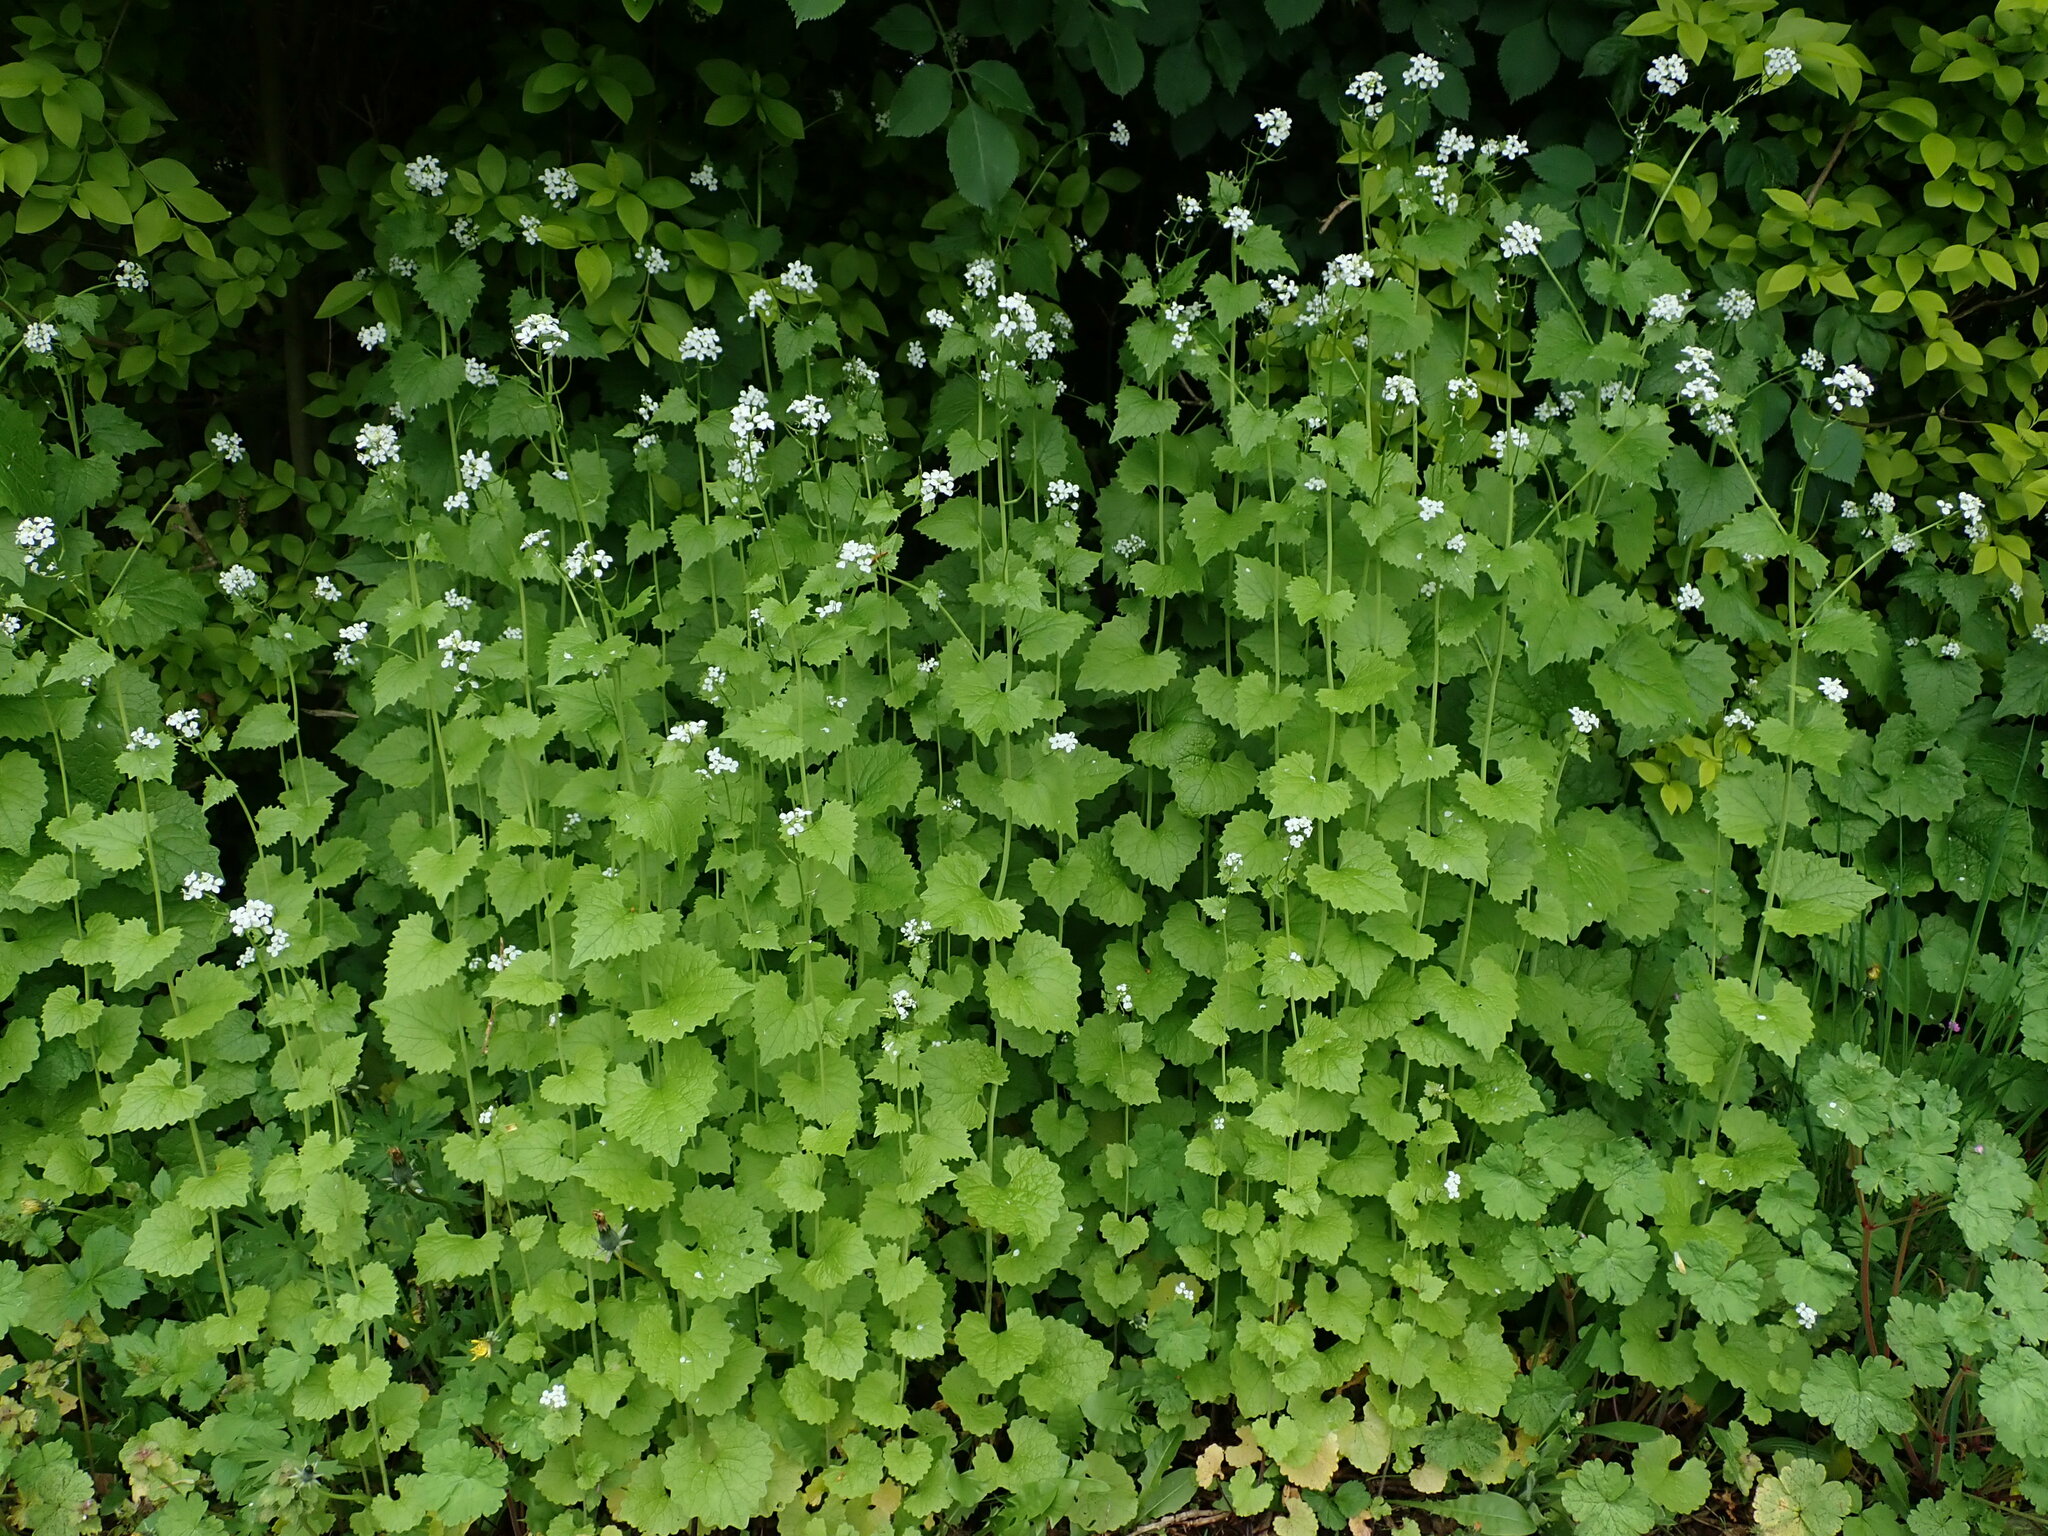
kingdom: Plantae
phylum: Tracheophyta
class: Magnoliopsida
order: Brassicales
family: Brassicaceae
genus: Alliaria
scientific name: Alliaria petiolata
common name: Garlic mustard
